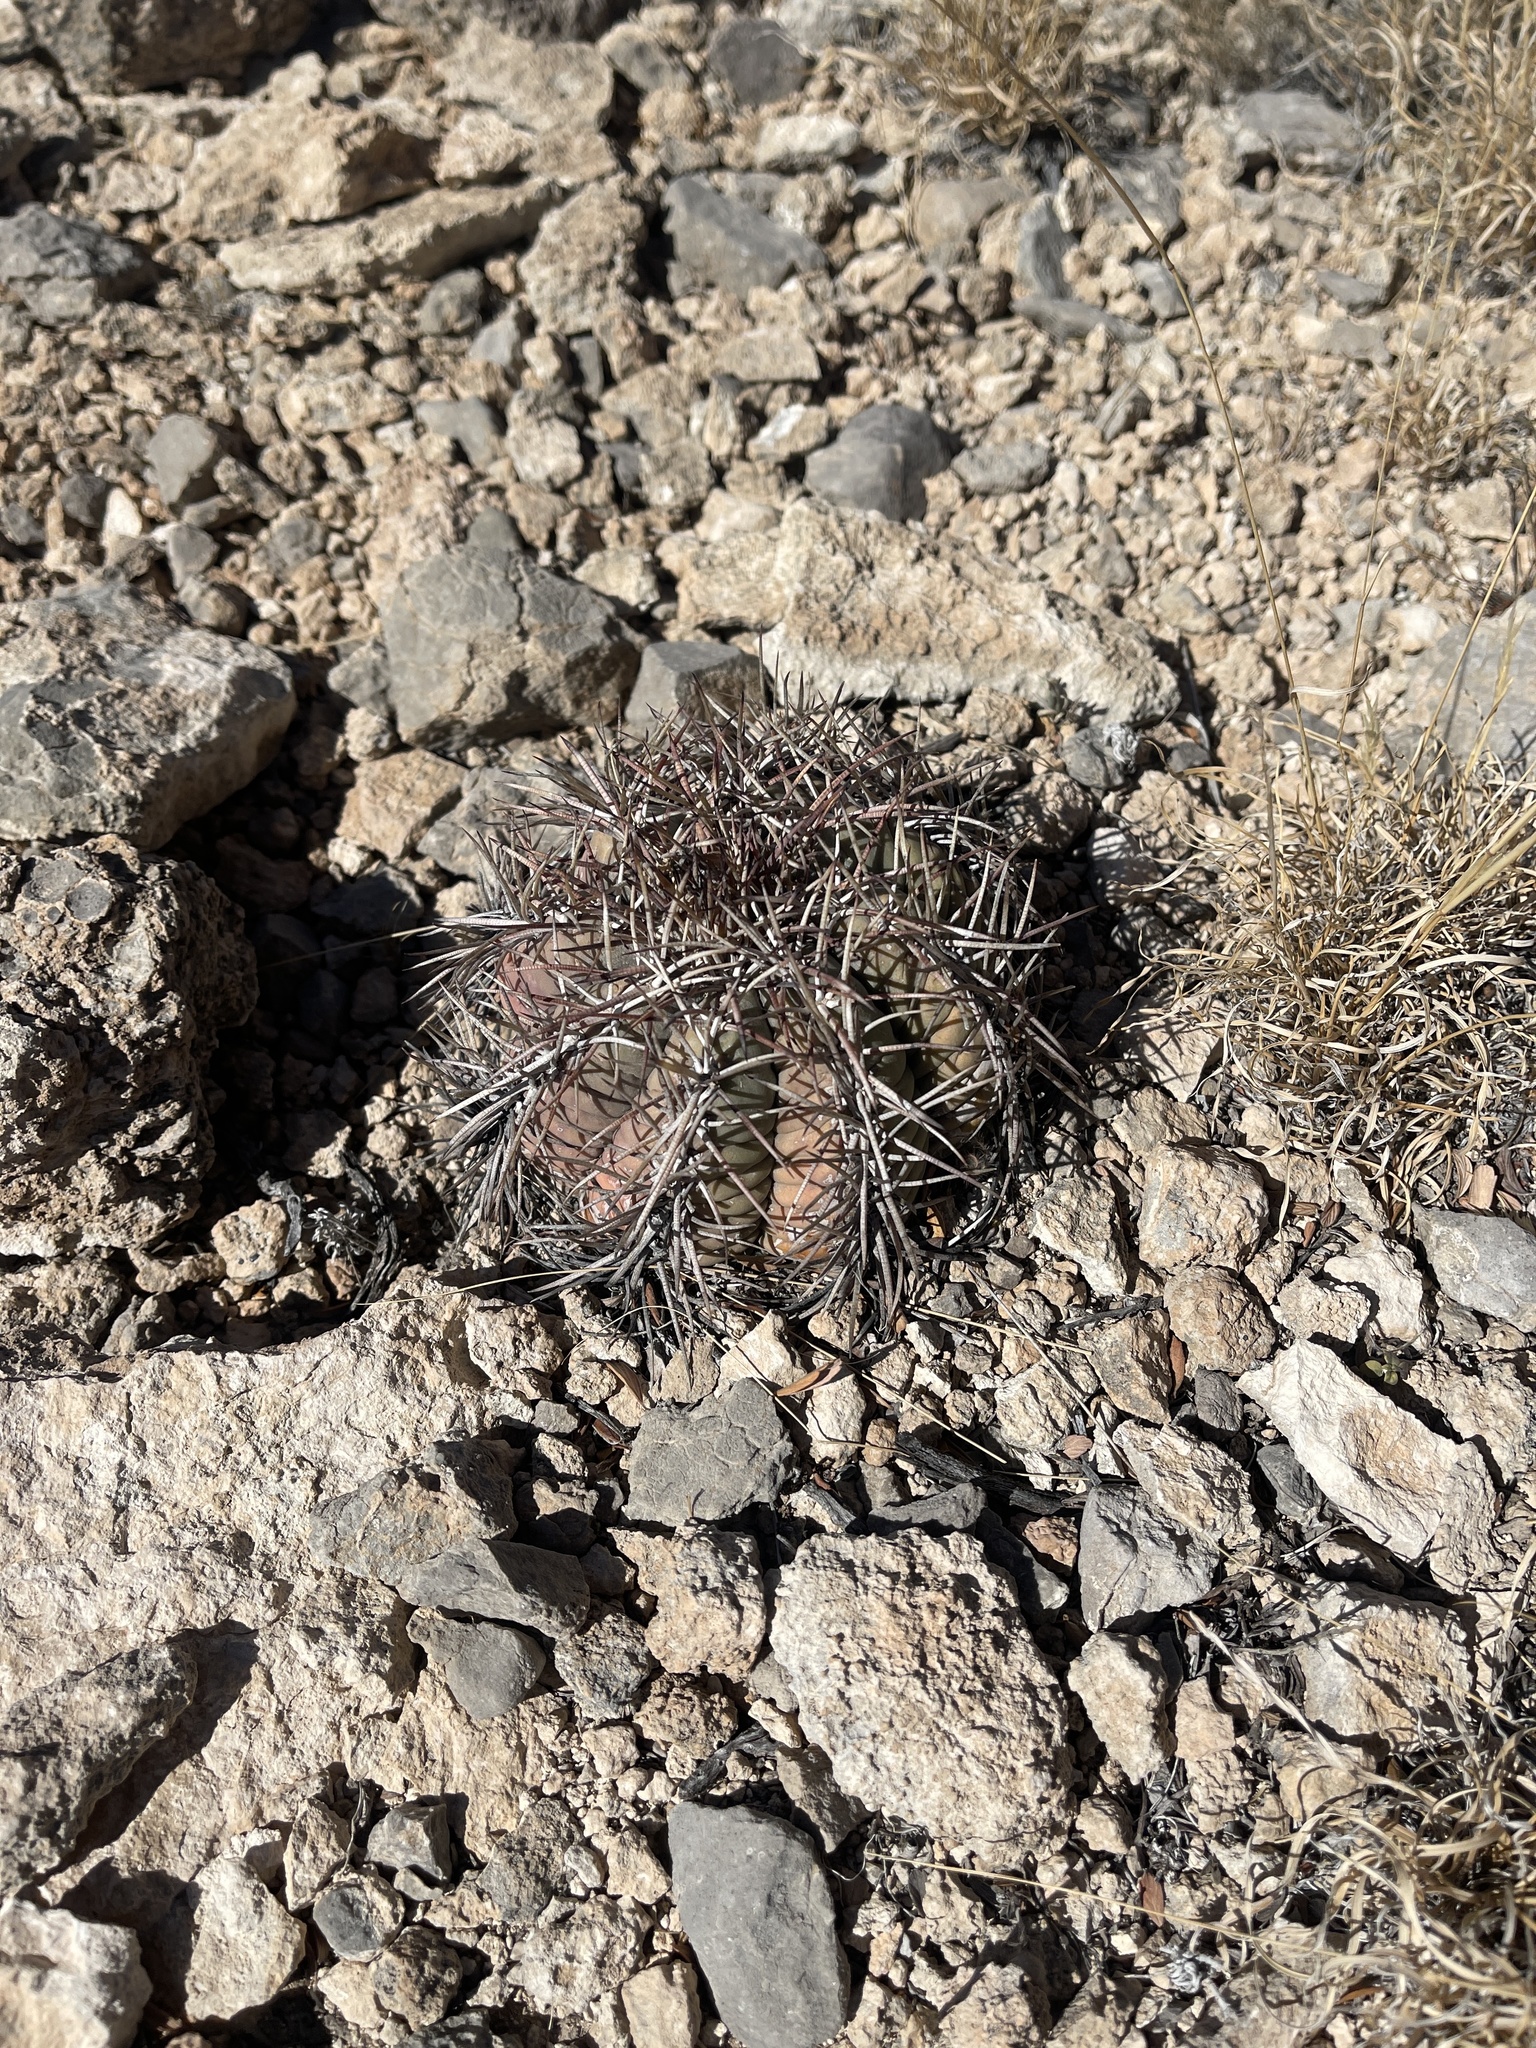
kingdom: Plantae
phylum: Tracheophyta
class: Magnoliopsida
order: Caryophyllales
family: Cactaceae
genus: Echinocactus
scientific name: Echinocactus horizonthalonius
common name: Devilshead
